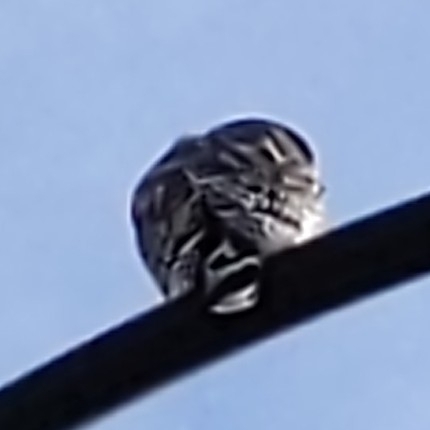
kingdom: Animalia
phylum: Chordata
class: Aves
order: Accipitriformes
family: Accipitridae
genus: Buteo
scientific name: Buteo lineatus
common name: Red-shouldered hawk
